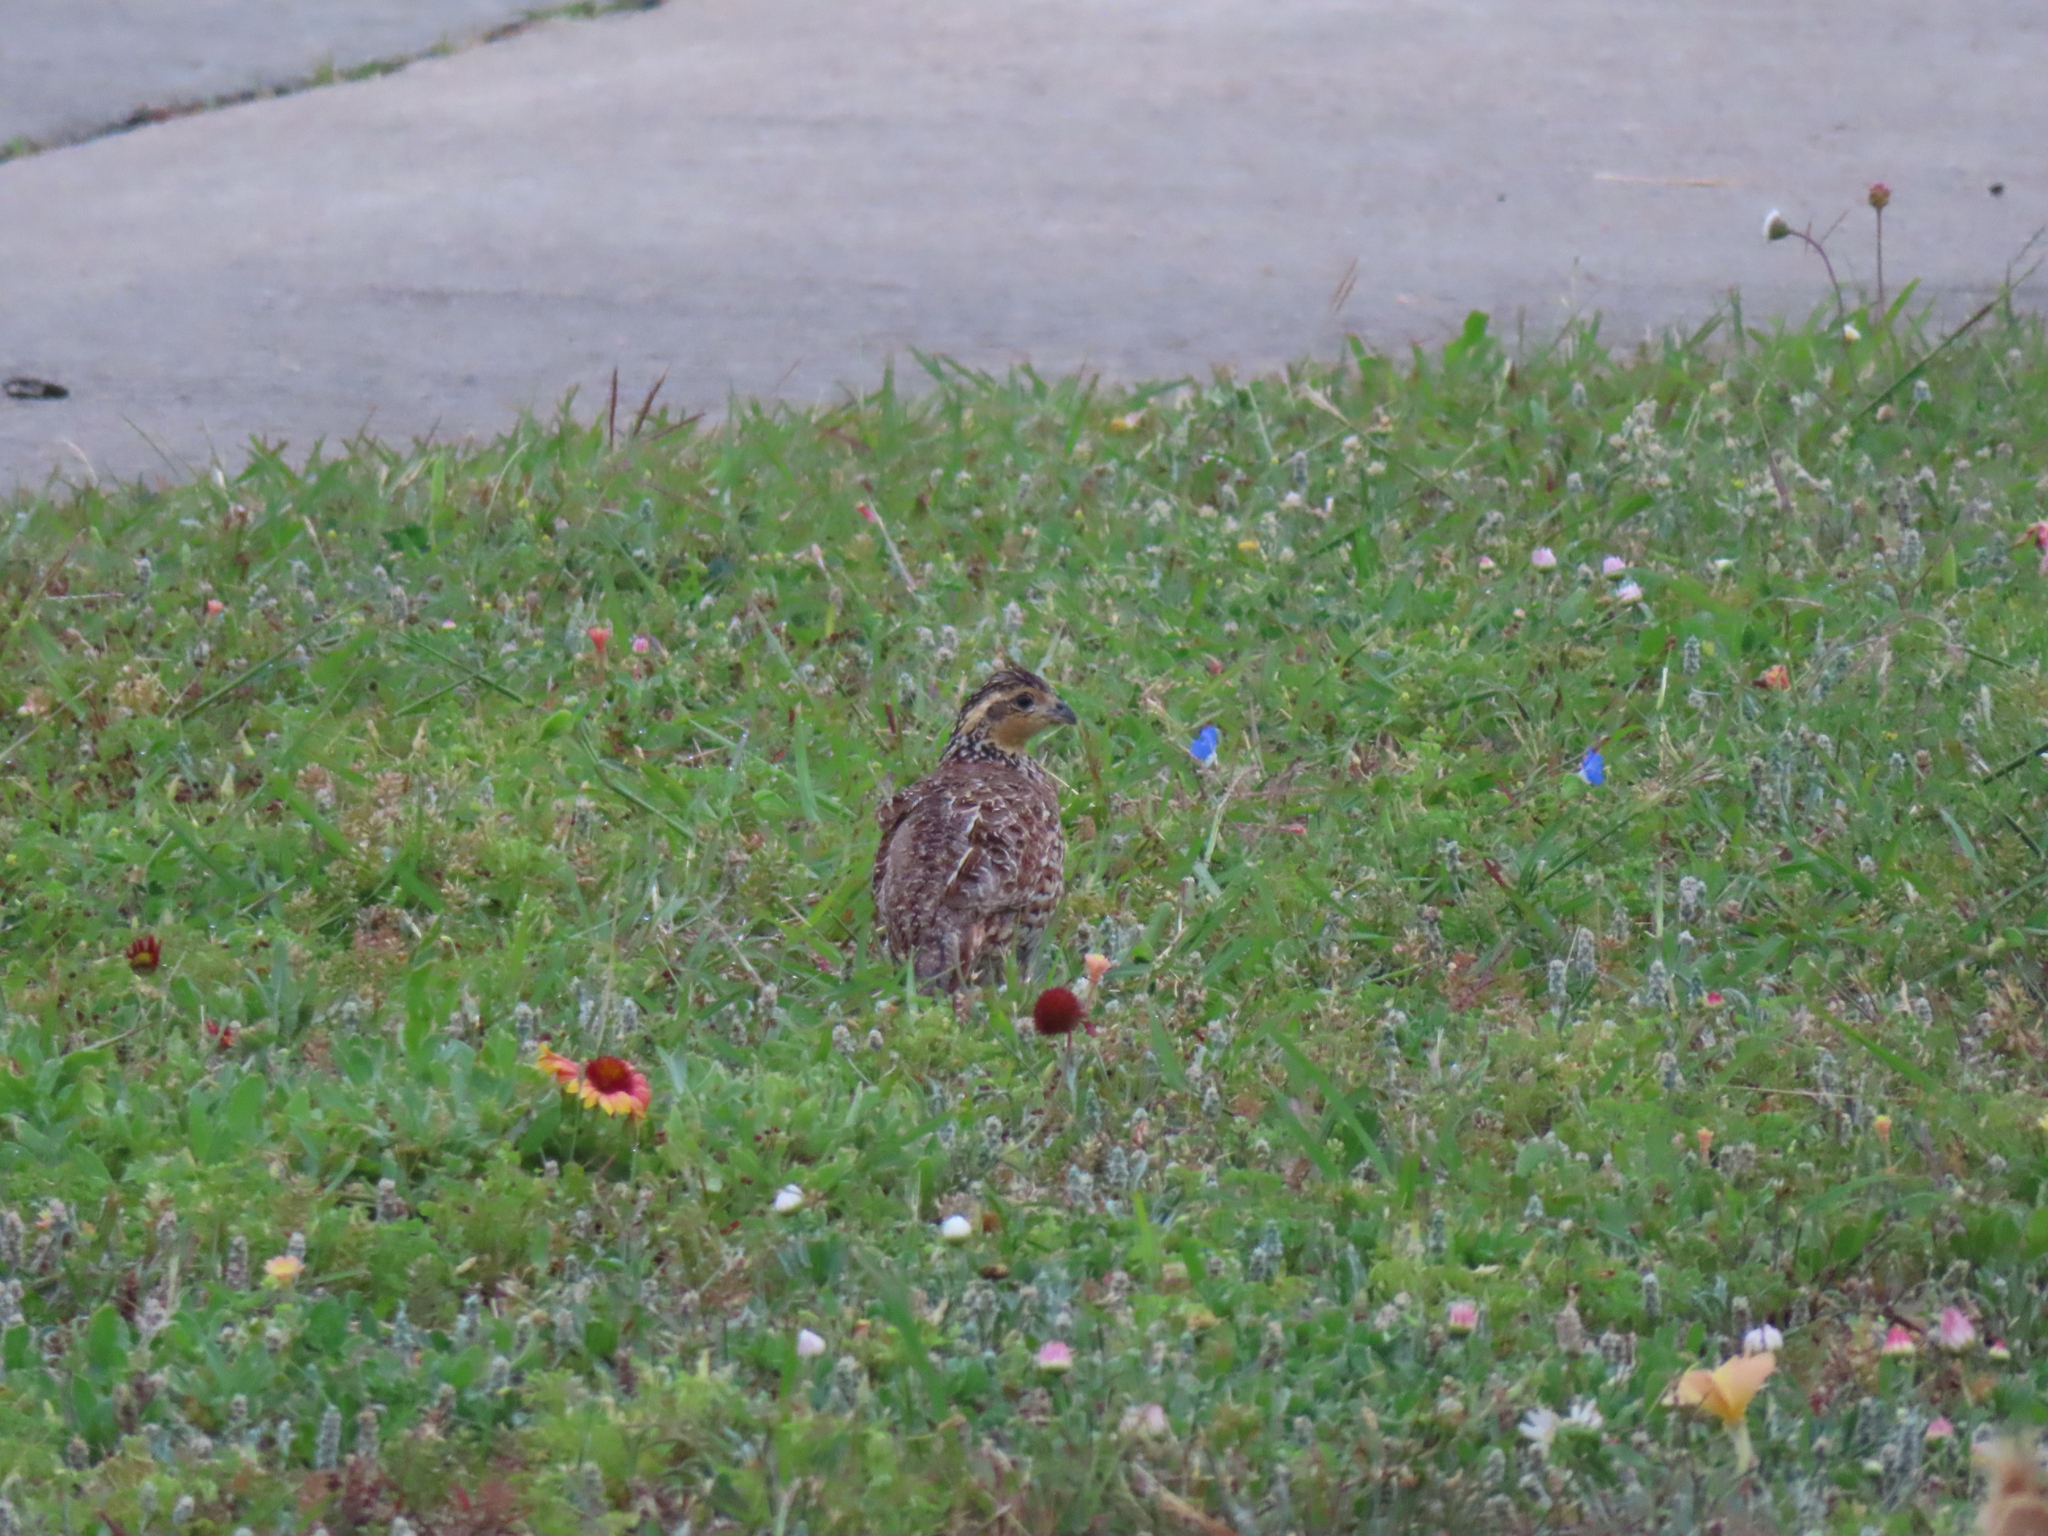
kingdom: Animalia
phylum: Chordata
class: Aves
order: Galliformes
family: Odontophoridae
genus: Colinus
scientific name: Colinus virginianus
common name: Northern bobwhite
